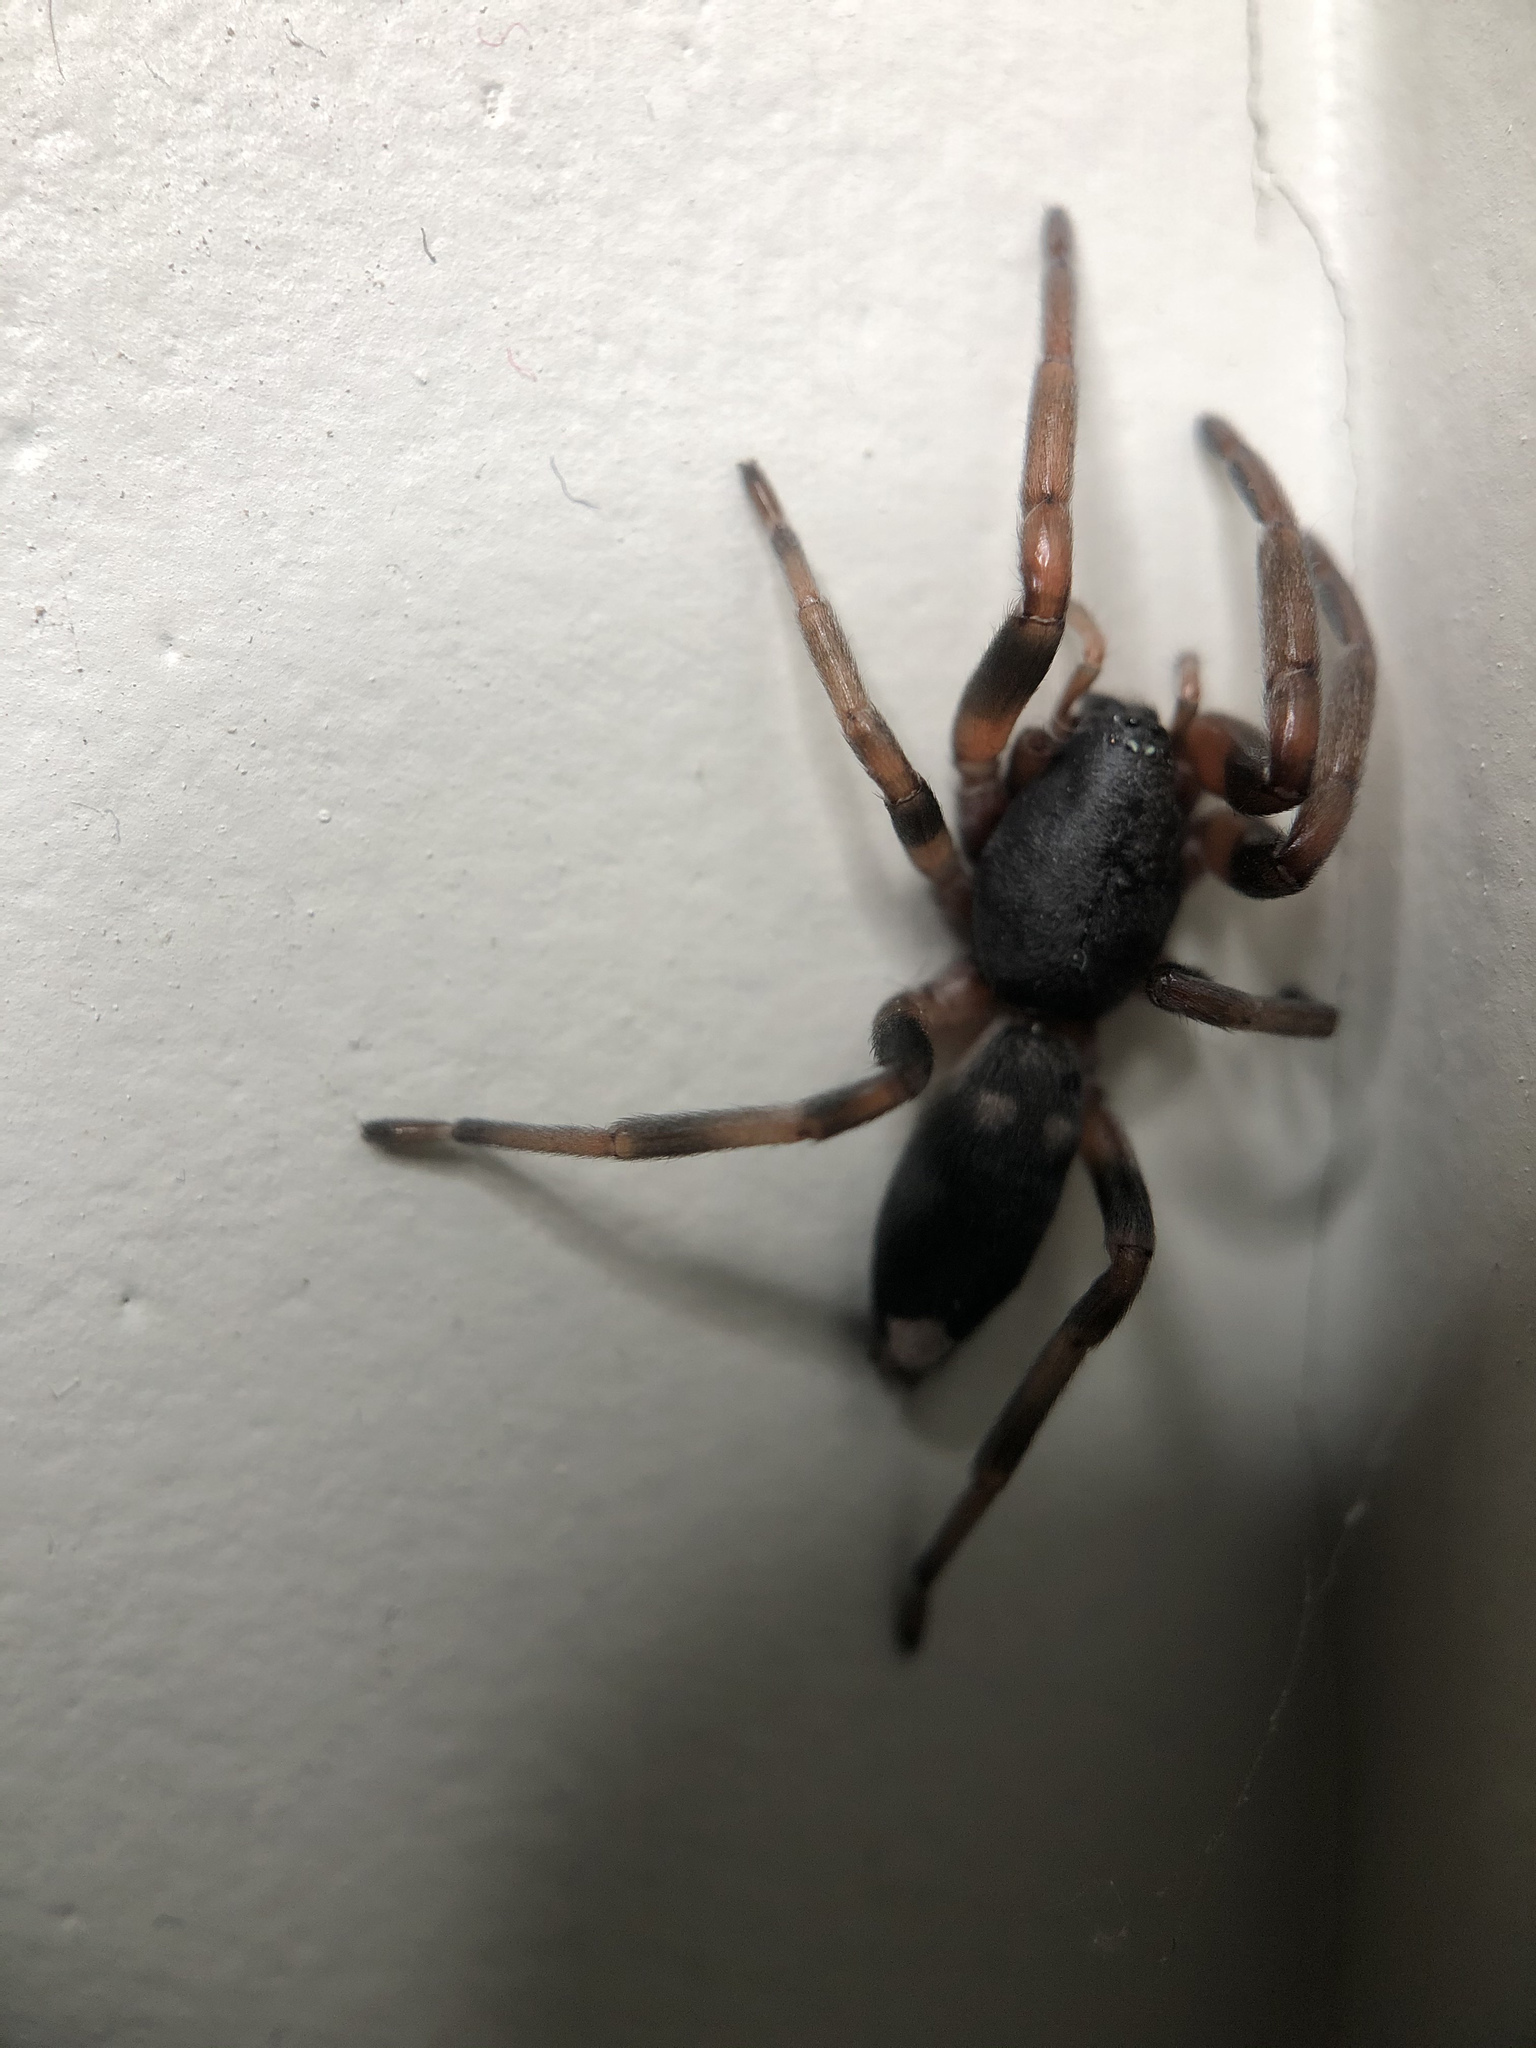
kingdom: Animalia
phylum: Arthropoda
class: Arachnida
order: Araneae
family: Lamponidae
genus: Lampona
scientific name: Lampona cylindrata
